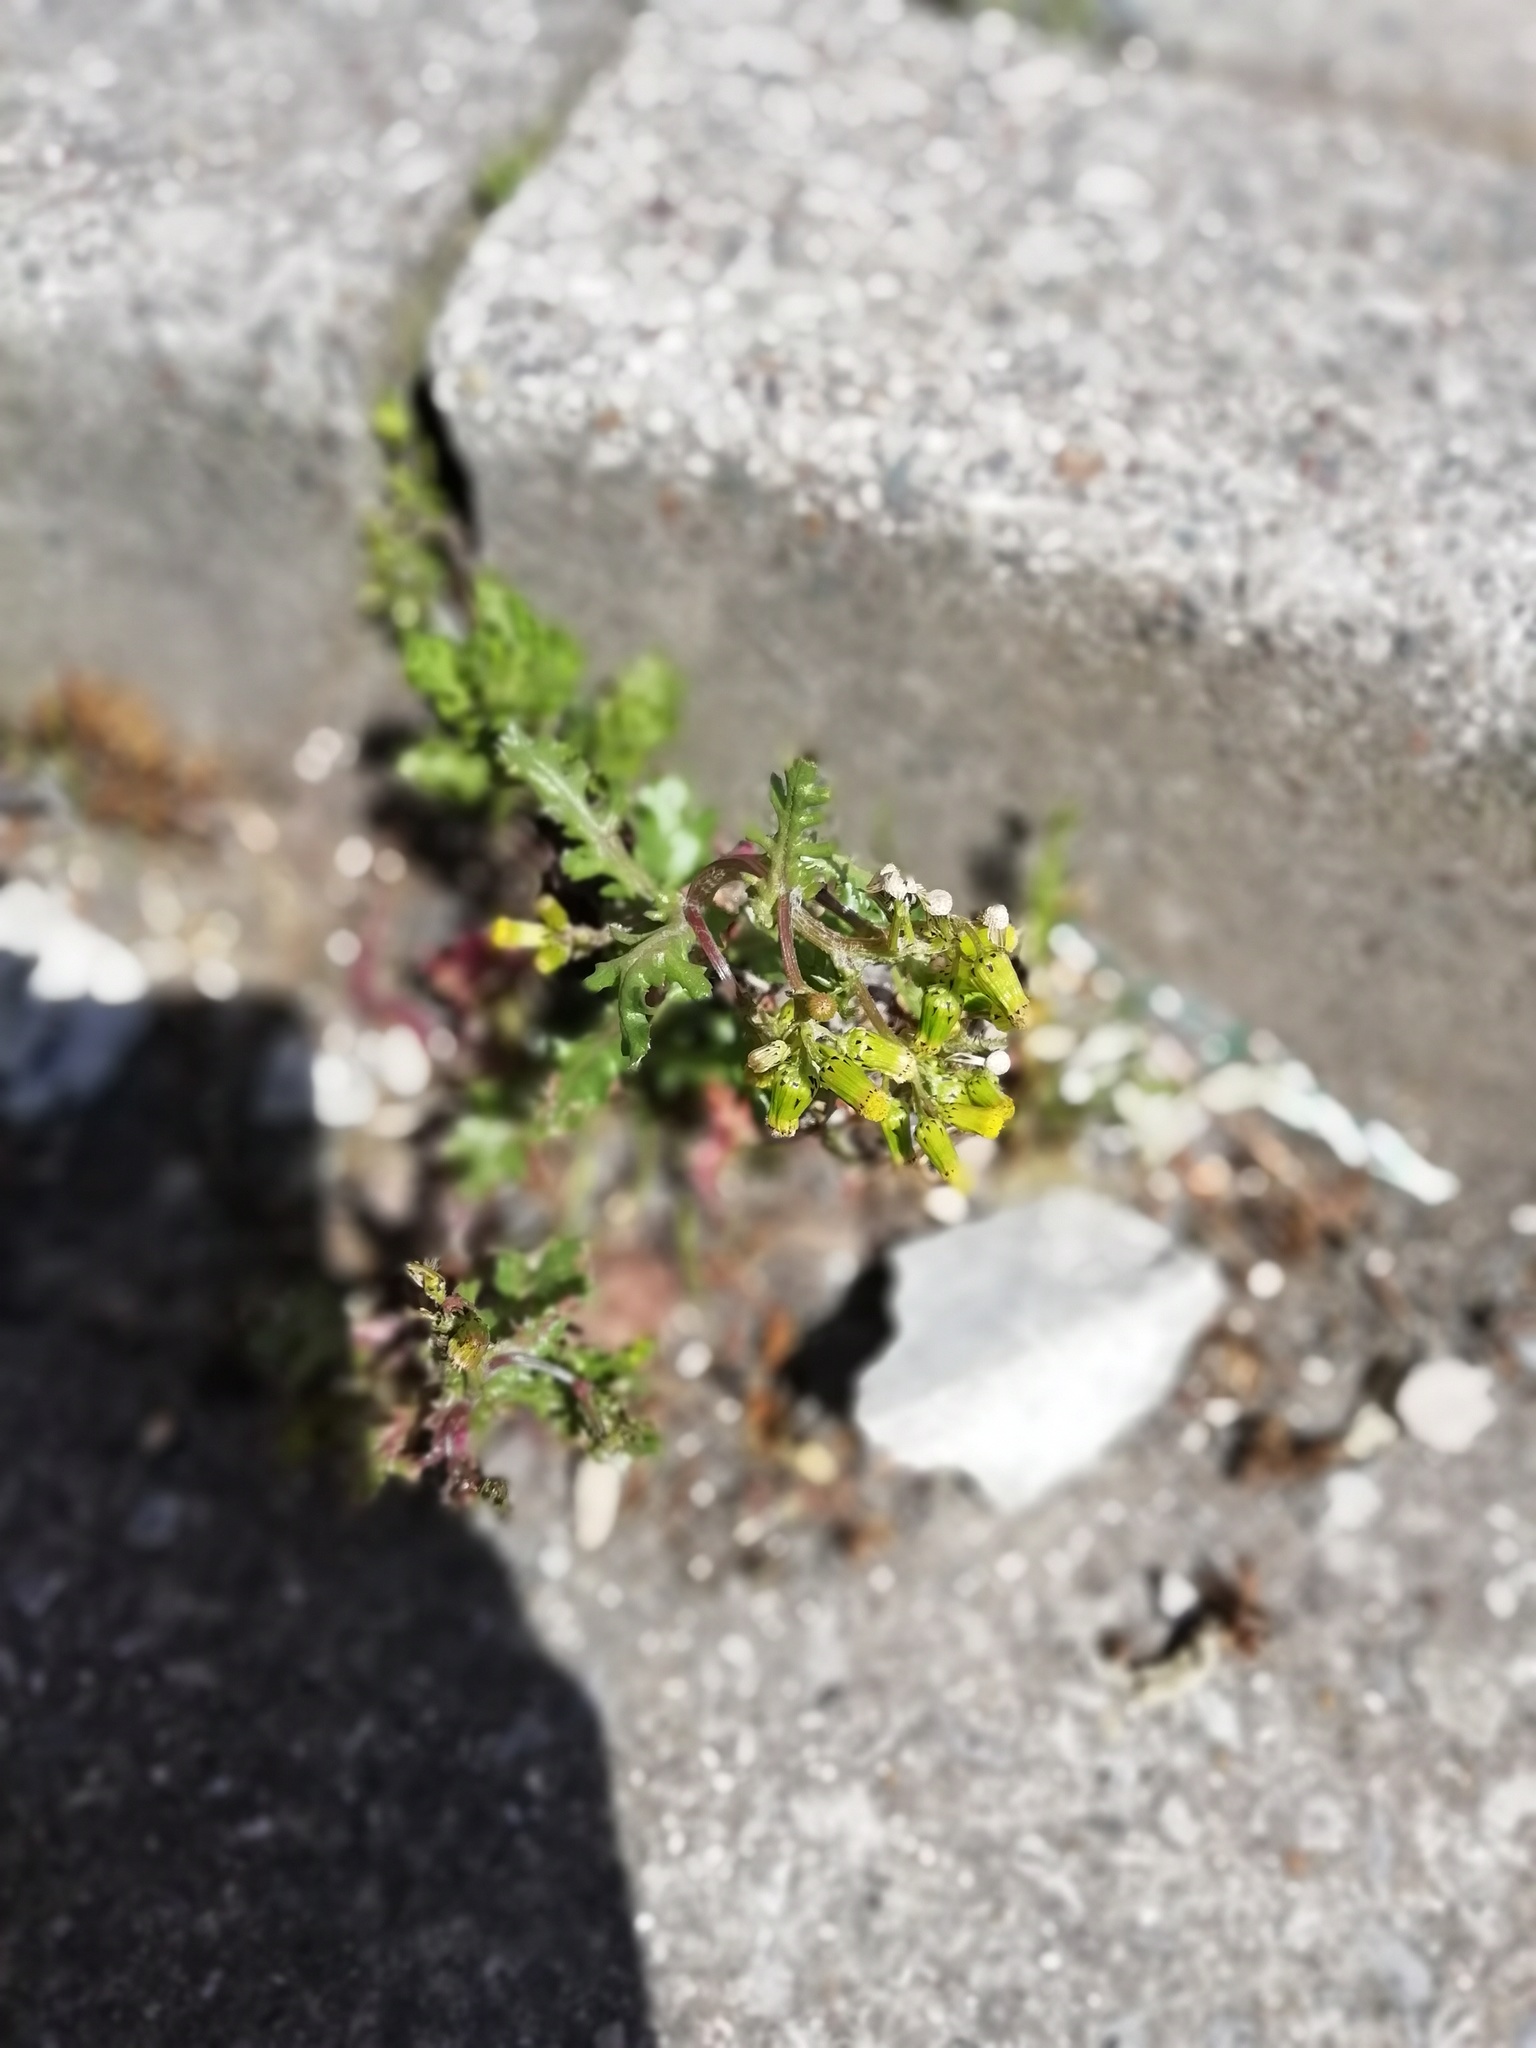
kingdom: Plantae
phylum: Tracheophyta
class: Magnoliopsida
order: Asterales
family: Asteraceae
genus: Senecio
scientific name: Senecio vulgaris
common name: Old-man-in-the-spring
